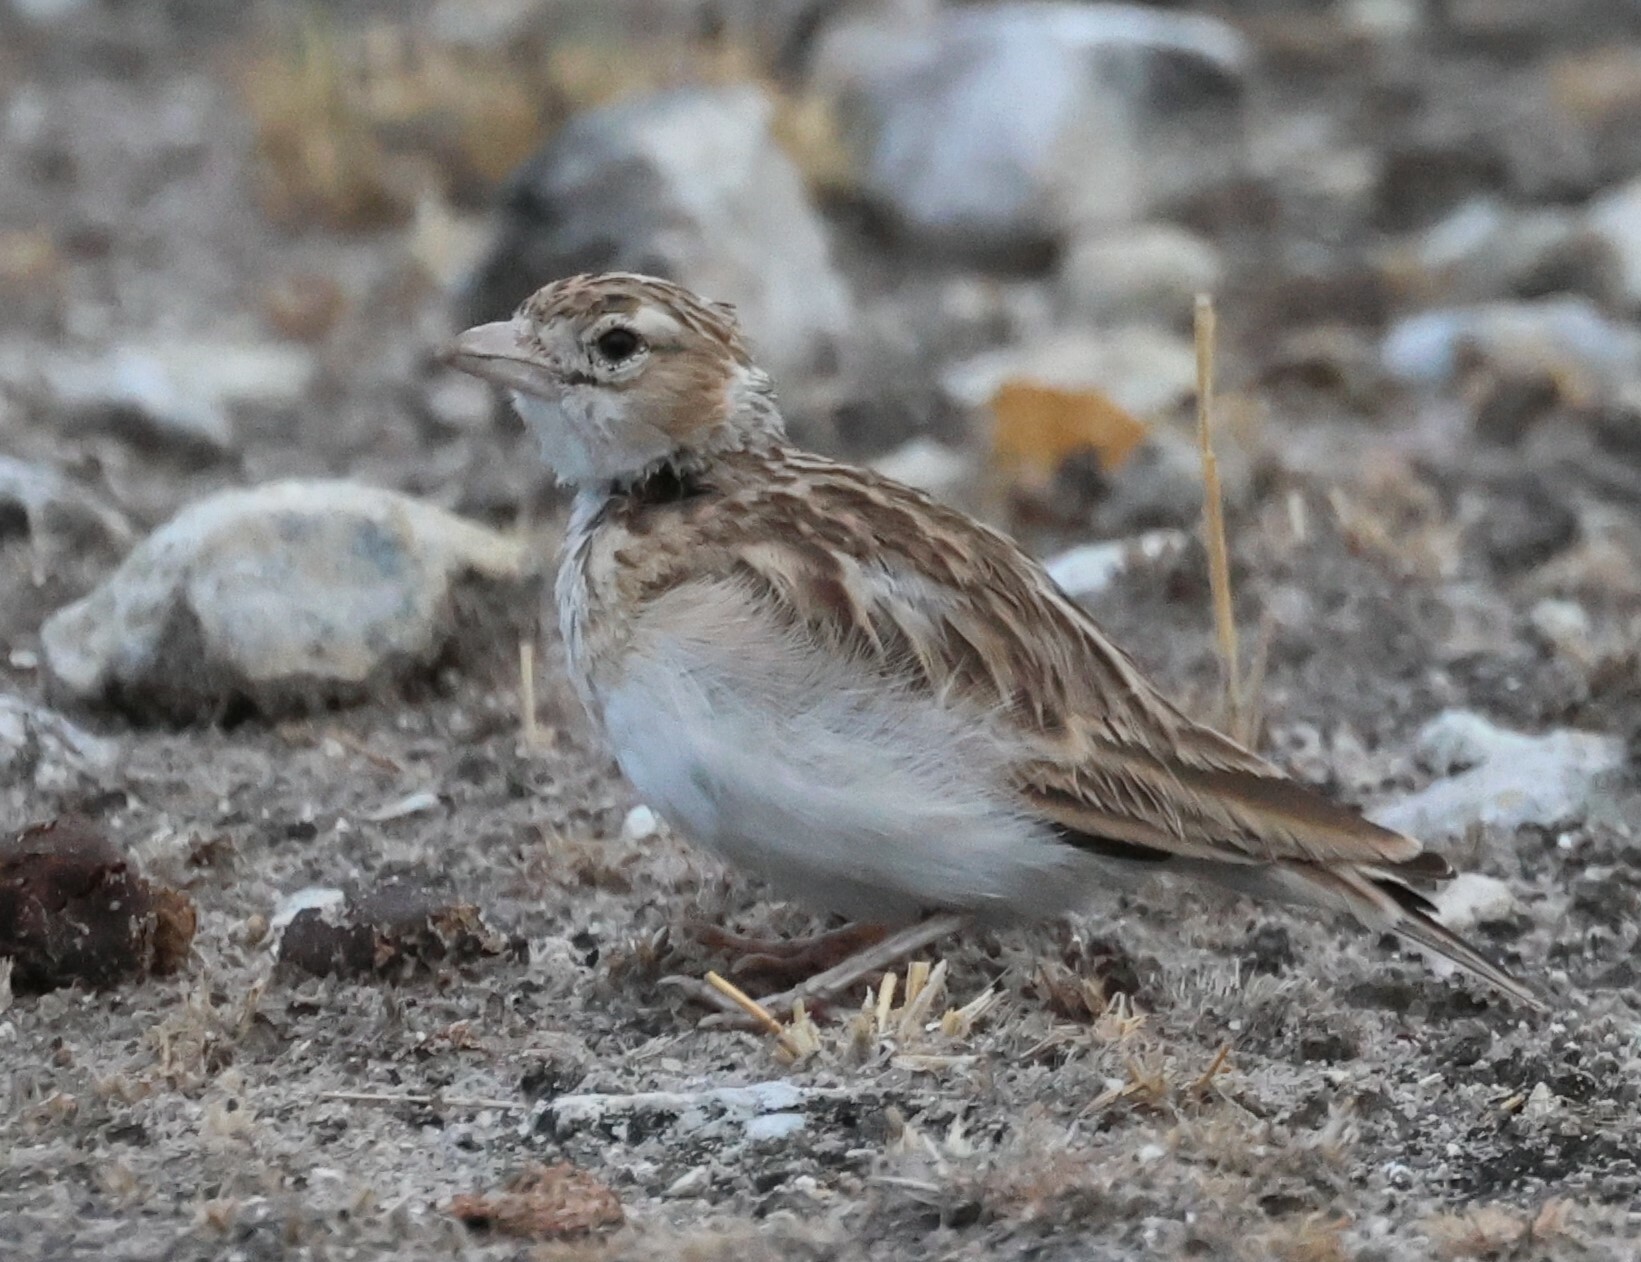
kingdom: Animalia
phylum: Chordata
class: Aves
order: Passeriformes
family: Alaudidae
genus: Spizocorys
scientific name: Spizocorys starki
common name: Stark's lark
